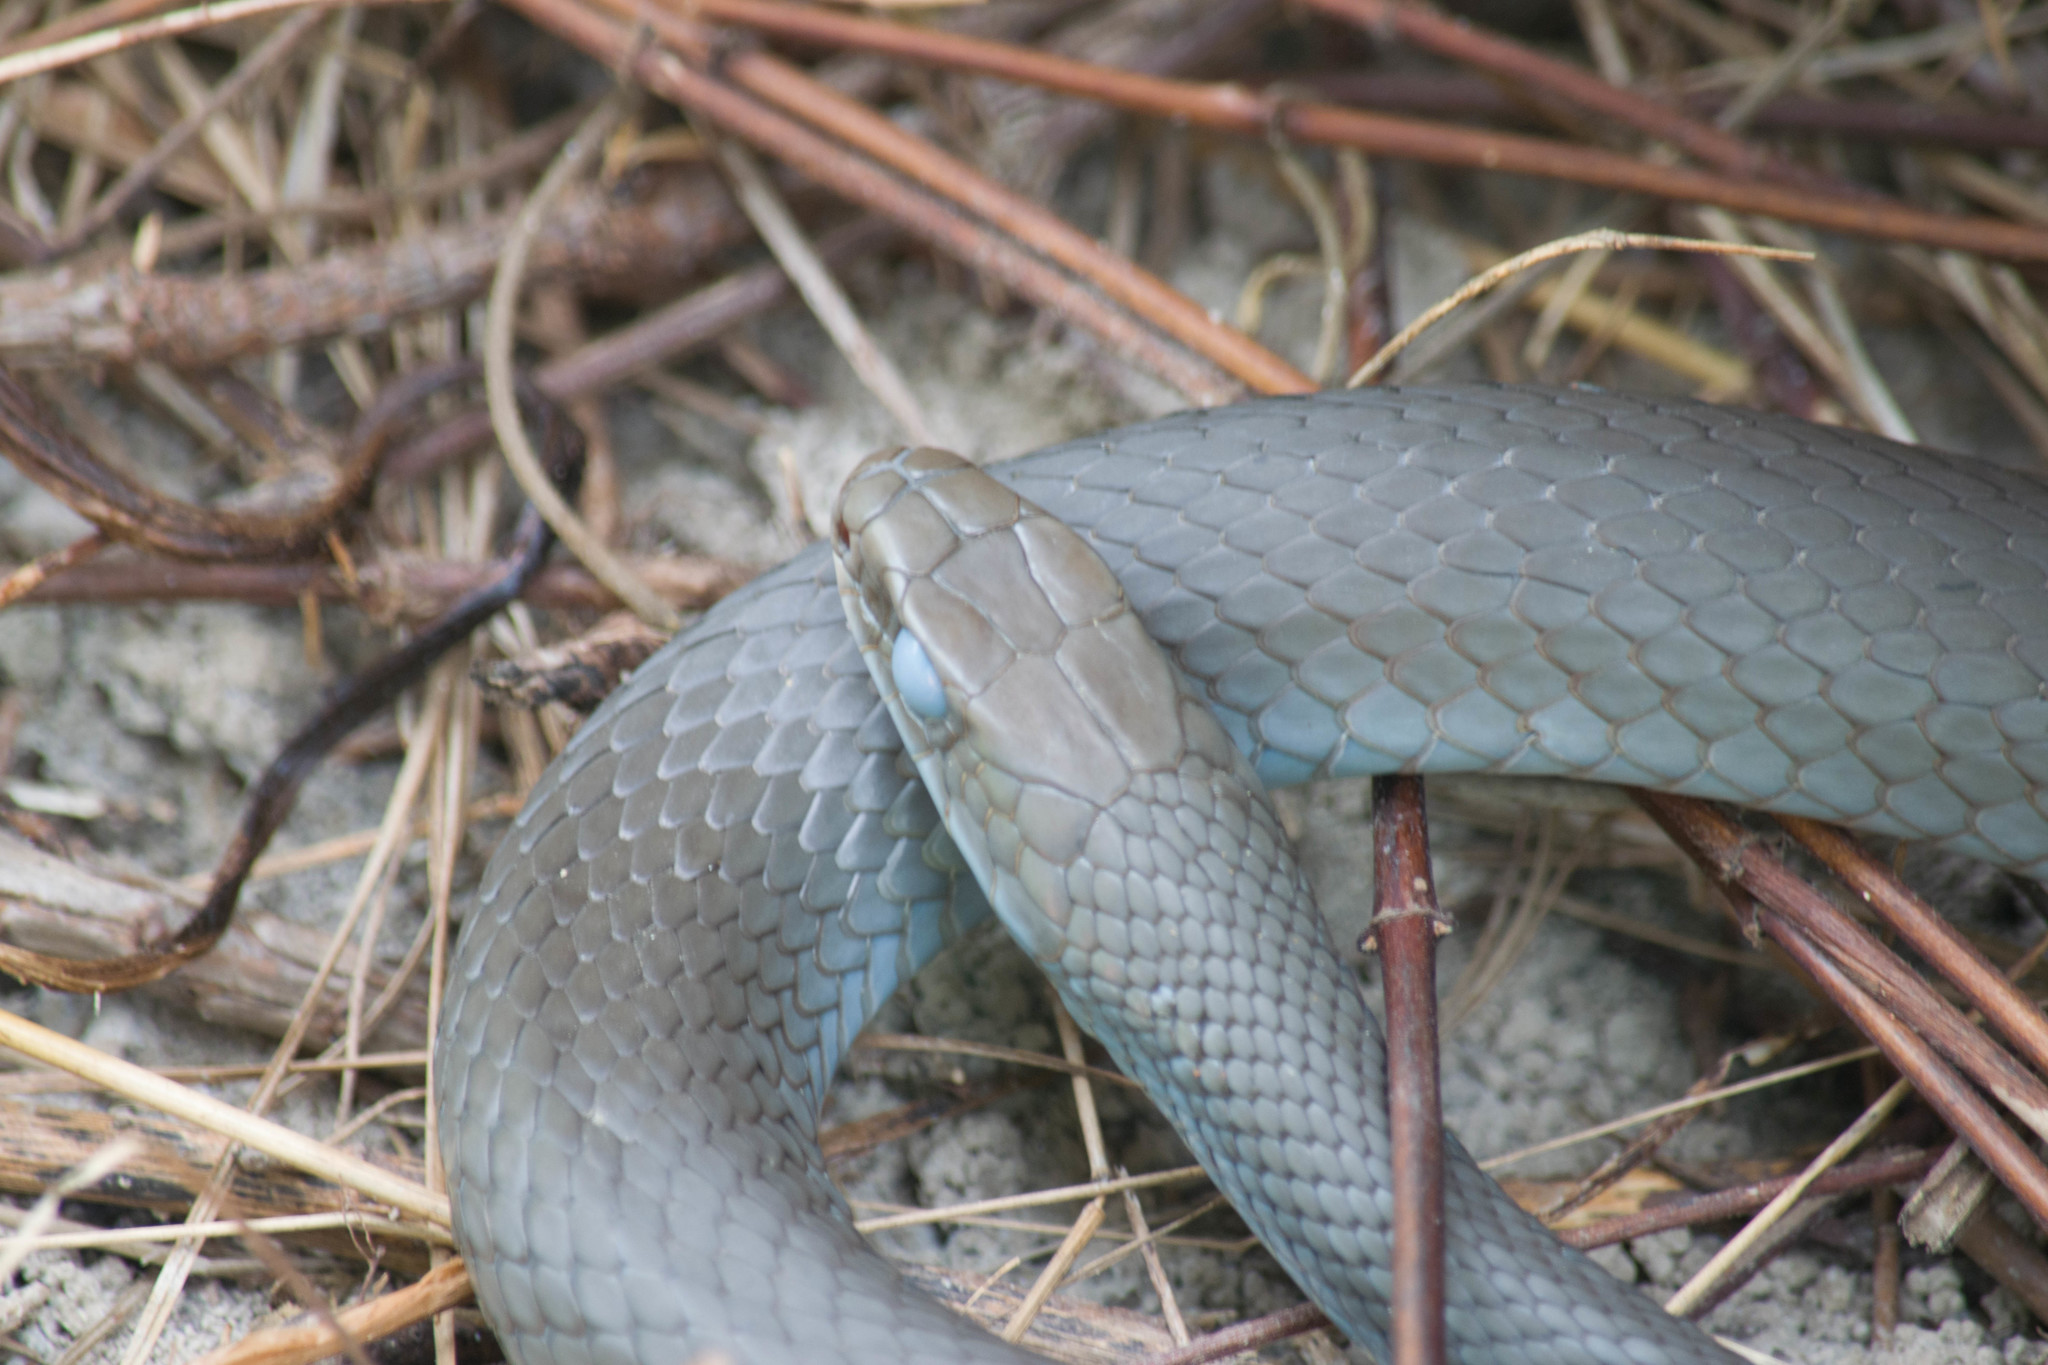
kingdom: Animalia
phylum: Chordata
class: Squamata
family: Colubridae
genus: Coluber
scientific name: Coluber constrictor
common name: Eastern racer
